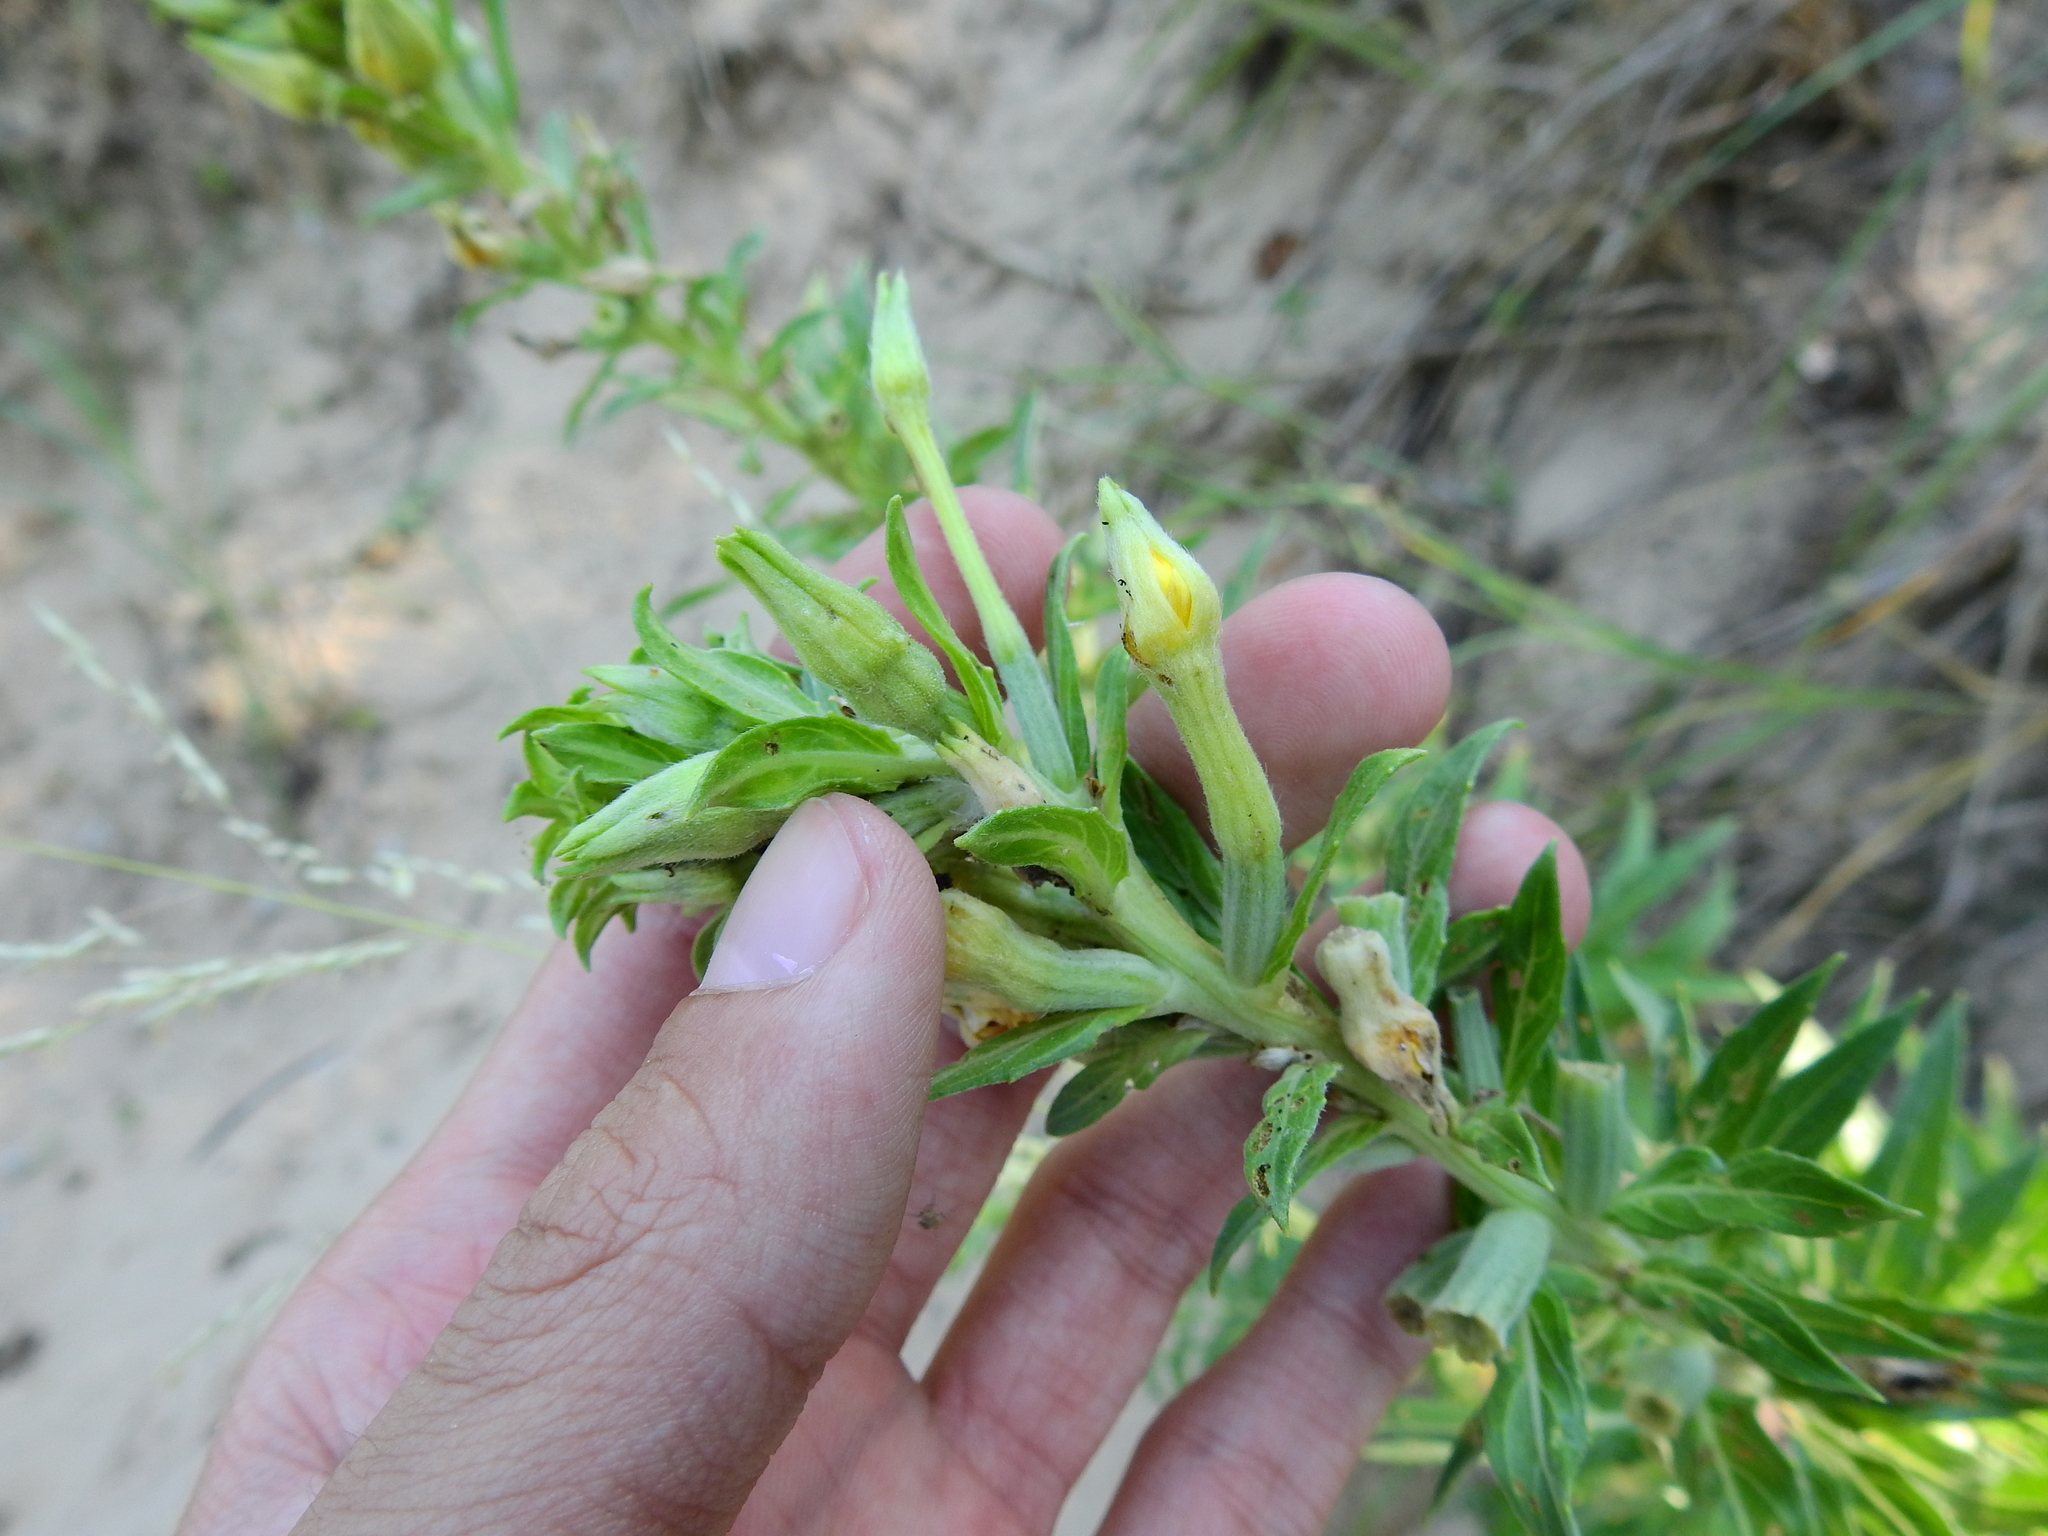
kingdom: Plantae
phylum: Tracheophyta
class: Magnoliopsida
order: Myrtales
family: Onagraceae
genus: Oenothera
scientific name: Oenothera parviflora
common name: Least evening-primrose
